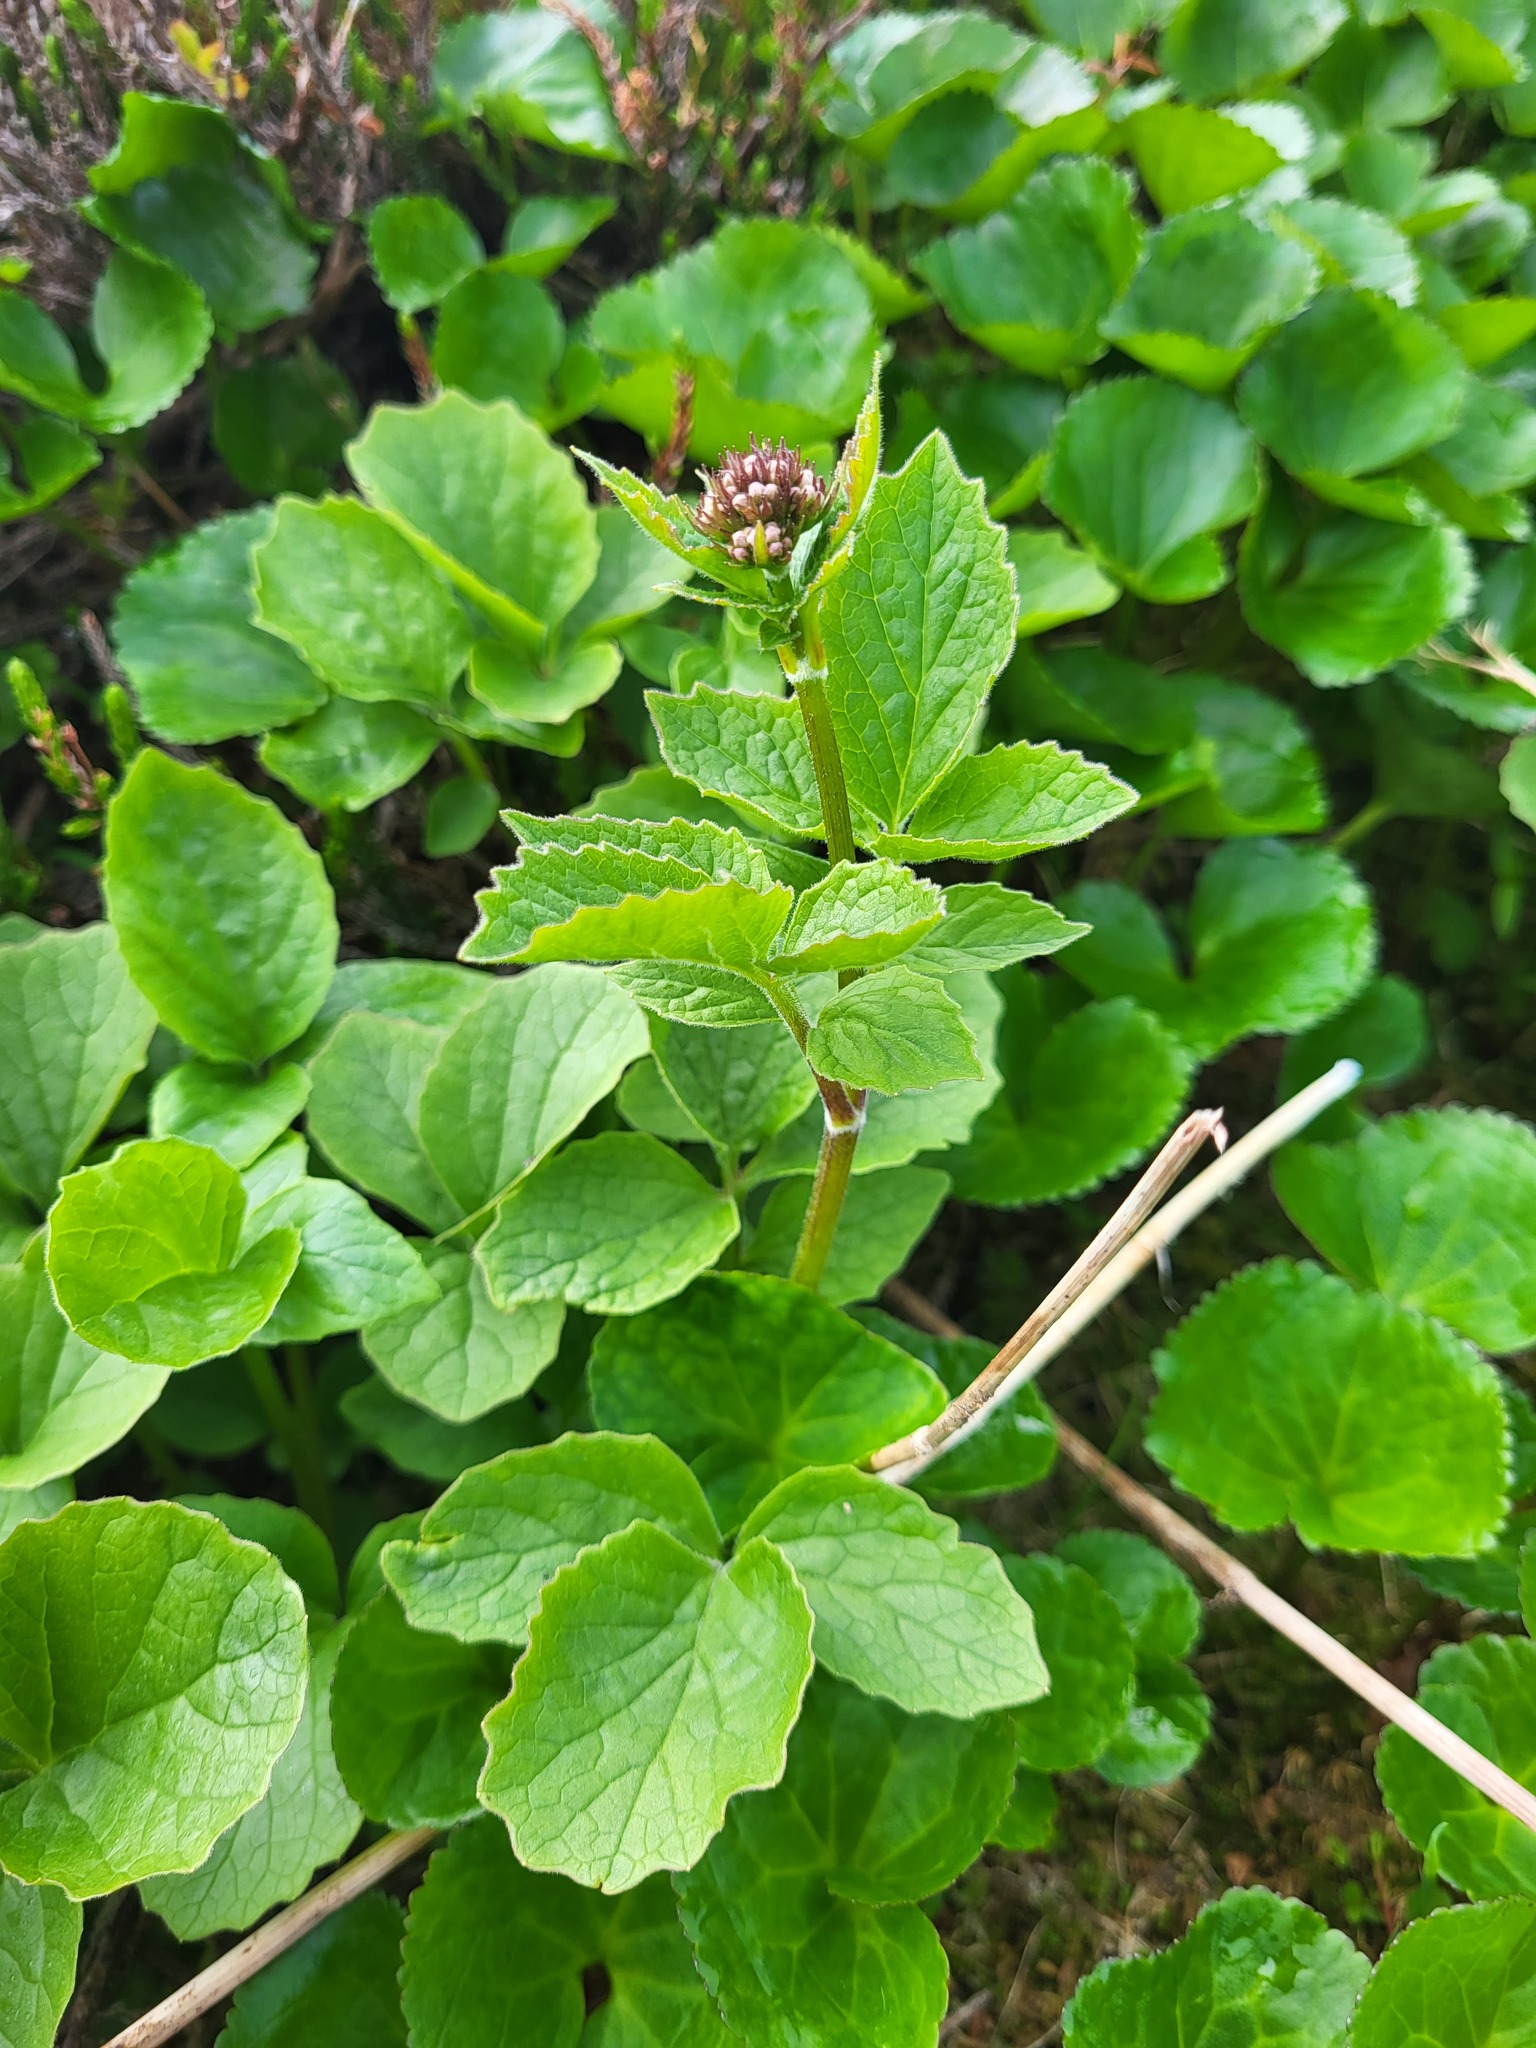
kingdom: Plantae
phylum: Tracheophyta
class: Magnoliopsida
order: Dipsacales
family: Caprifoliaceae
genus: Valeriana
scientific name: Valeriana sitchensis
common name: Pacific valerian
